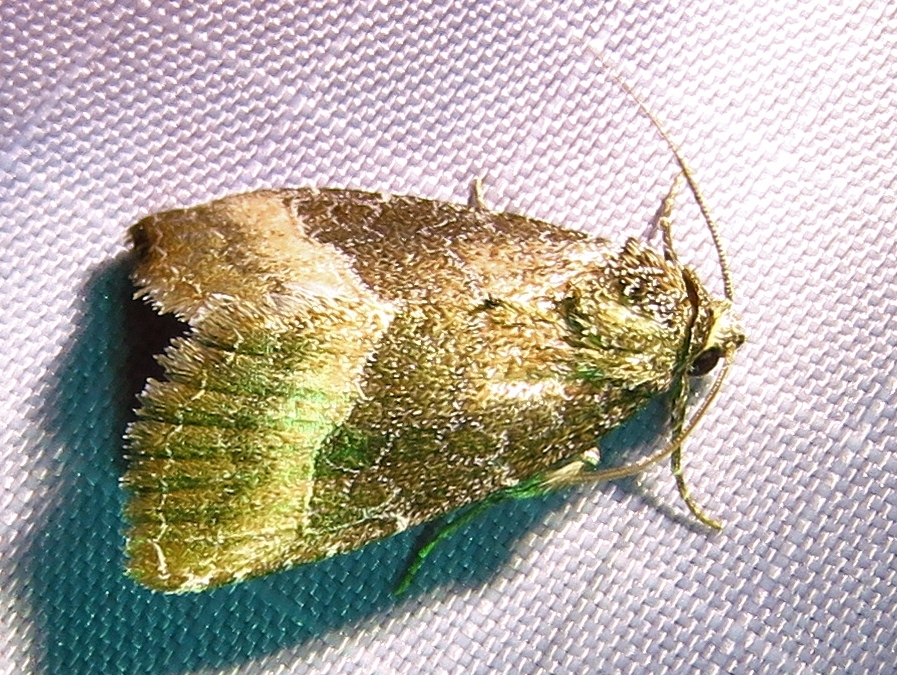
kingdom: Animalia
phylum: Arthropoda
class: Insecta
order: Lepidoptera
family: Noctuidae
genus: Ogdoconta
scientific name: Ogdoconta cinereola
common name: Common pinkband
